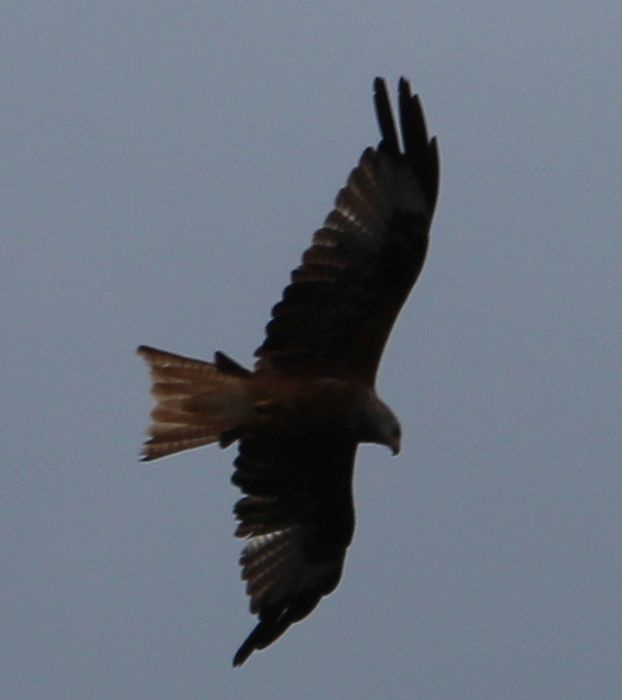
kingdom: Animalia
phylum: Chordata
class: Aves
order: Accipitriformes
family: Accipitridae
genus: Milvus
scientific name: Milvus milvus
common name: Red kite
